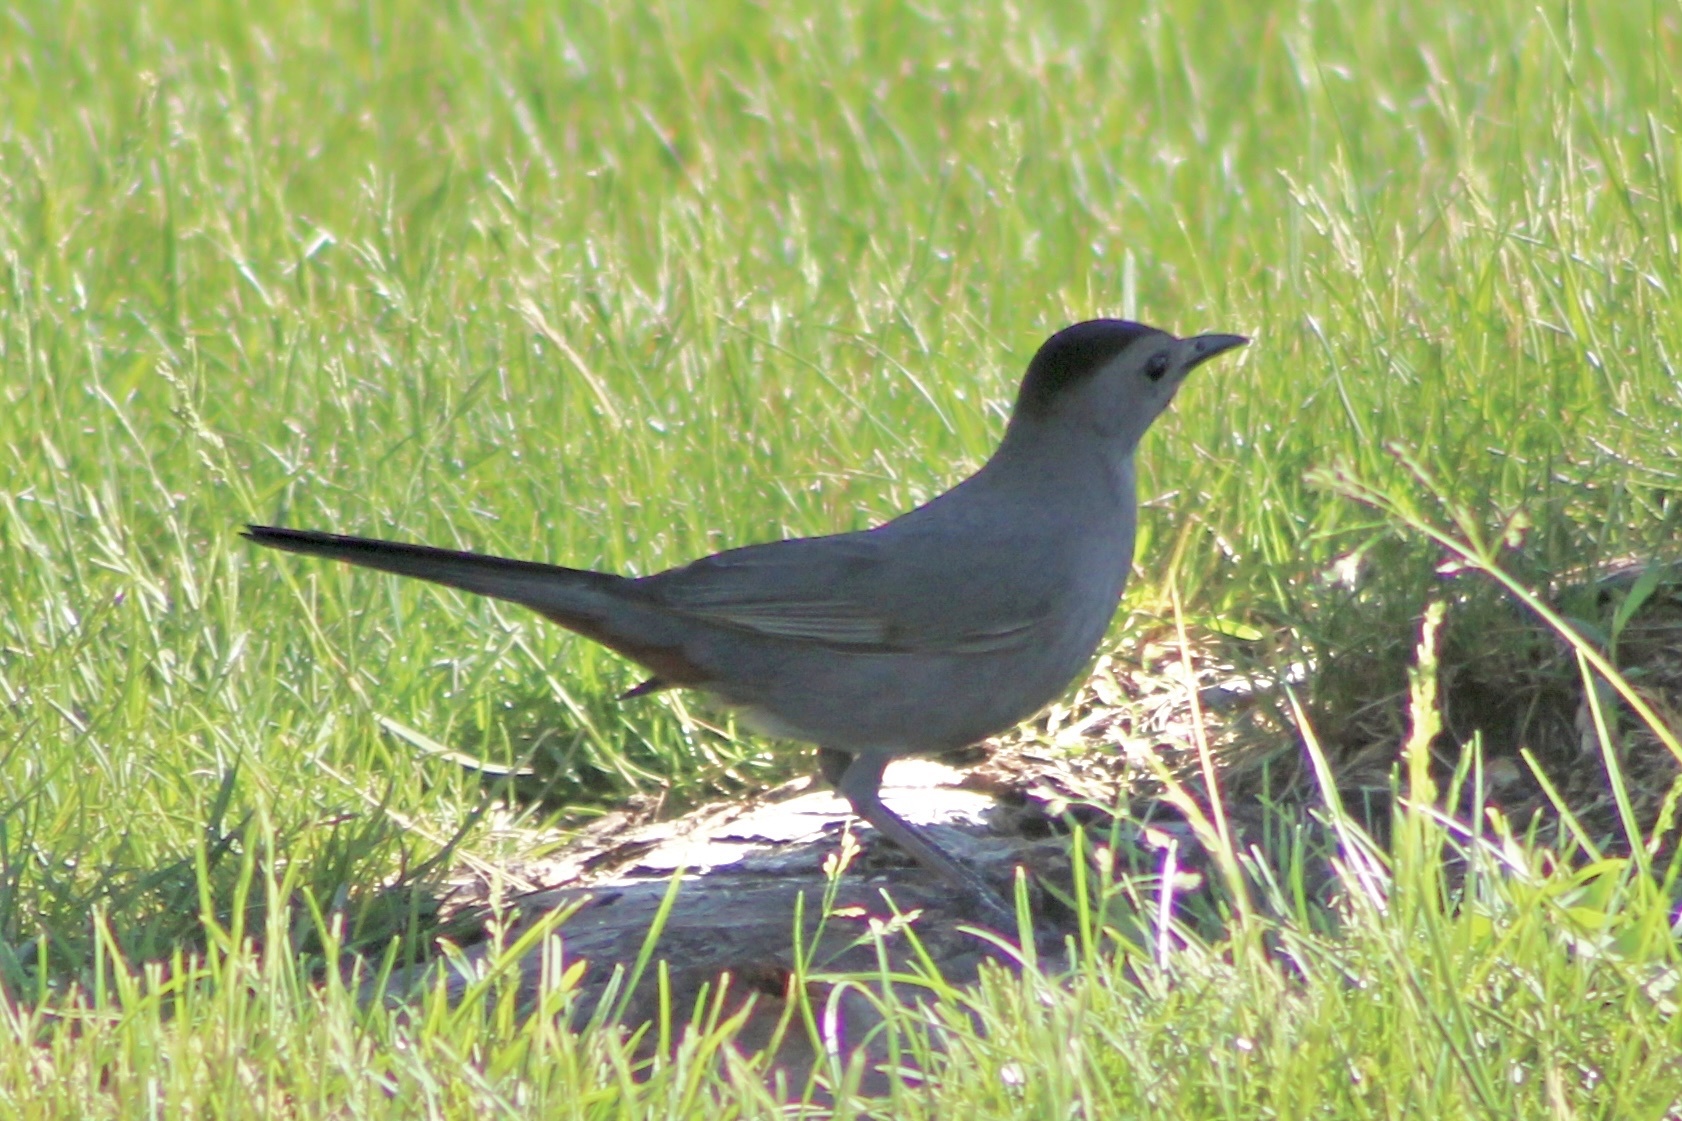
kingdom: Animalia
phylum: Chordata
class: Aves
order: Passeriformes
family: Mimidae
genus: Dumetella
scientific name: Dumetella carolinensis
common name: Gray catbird
